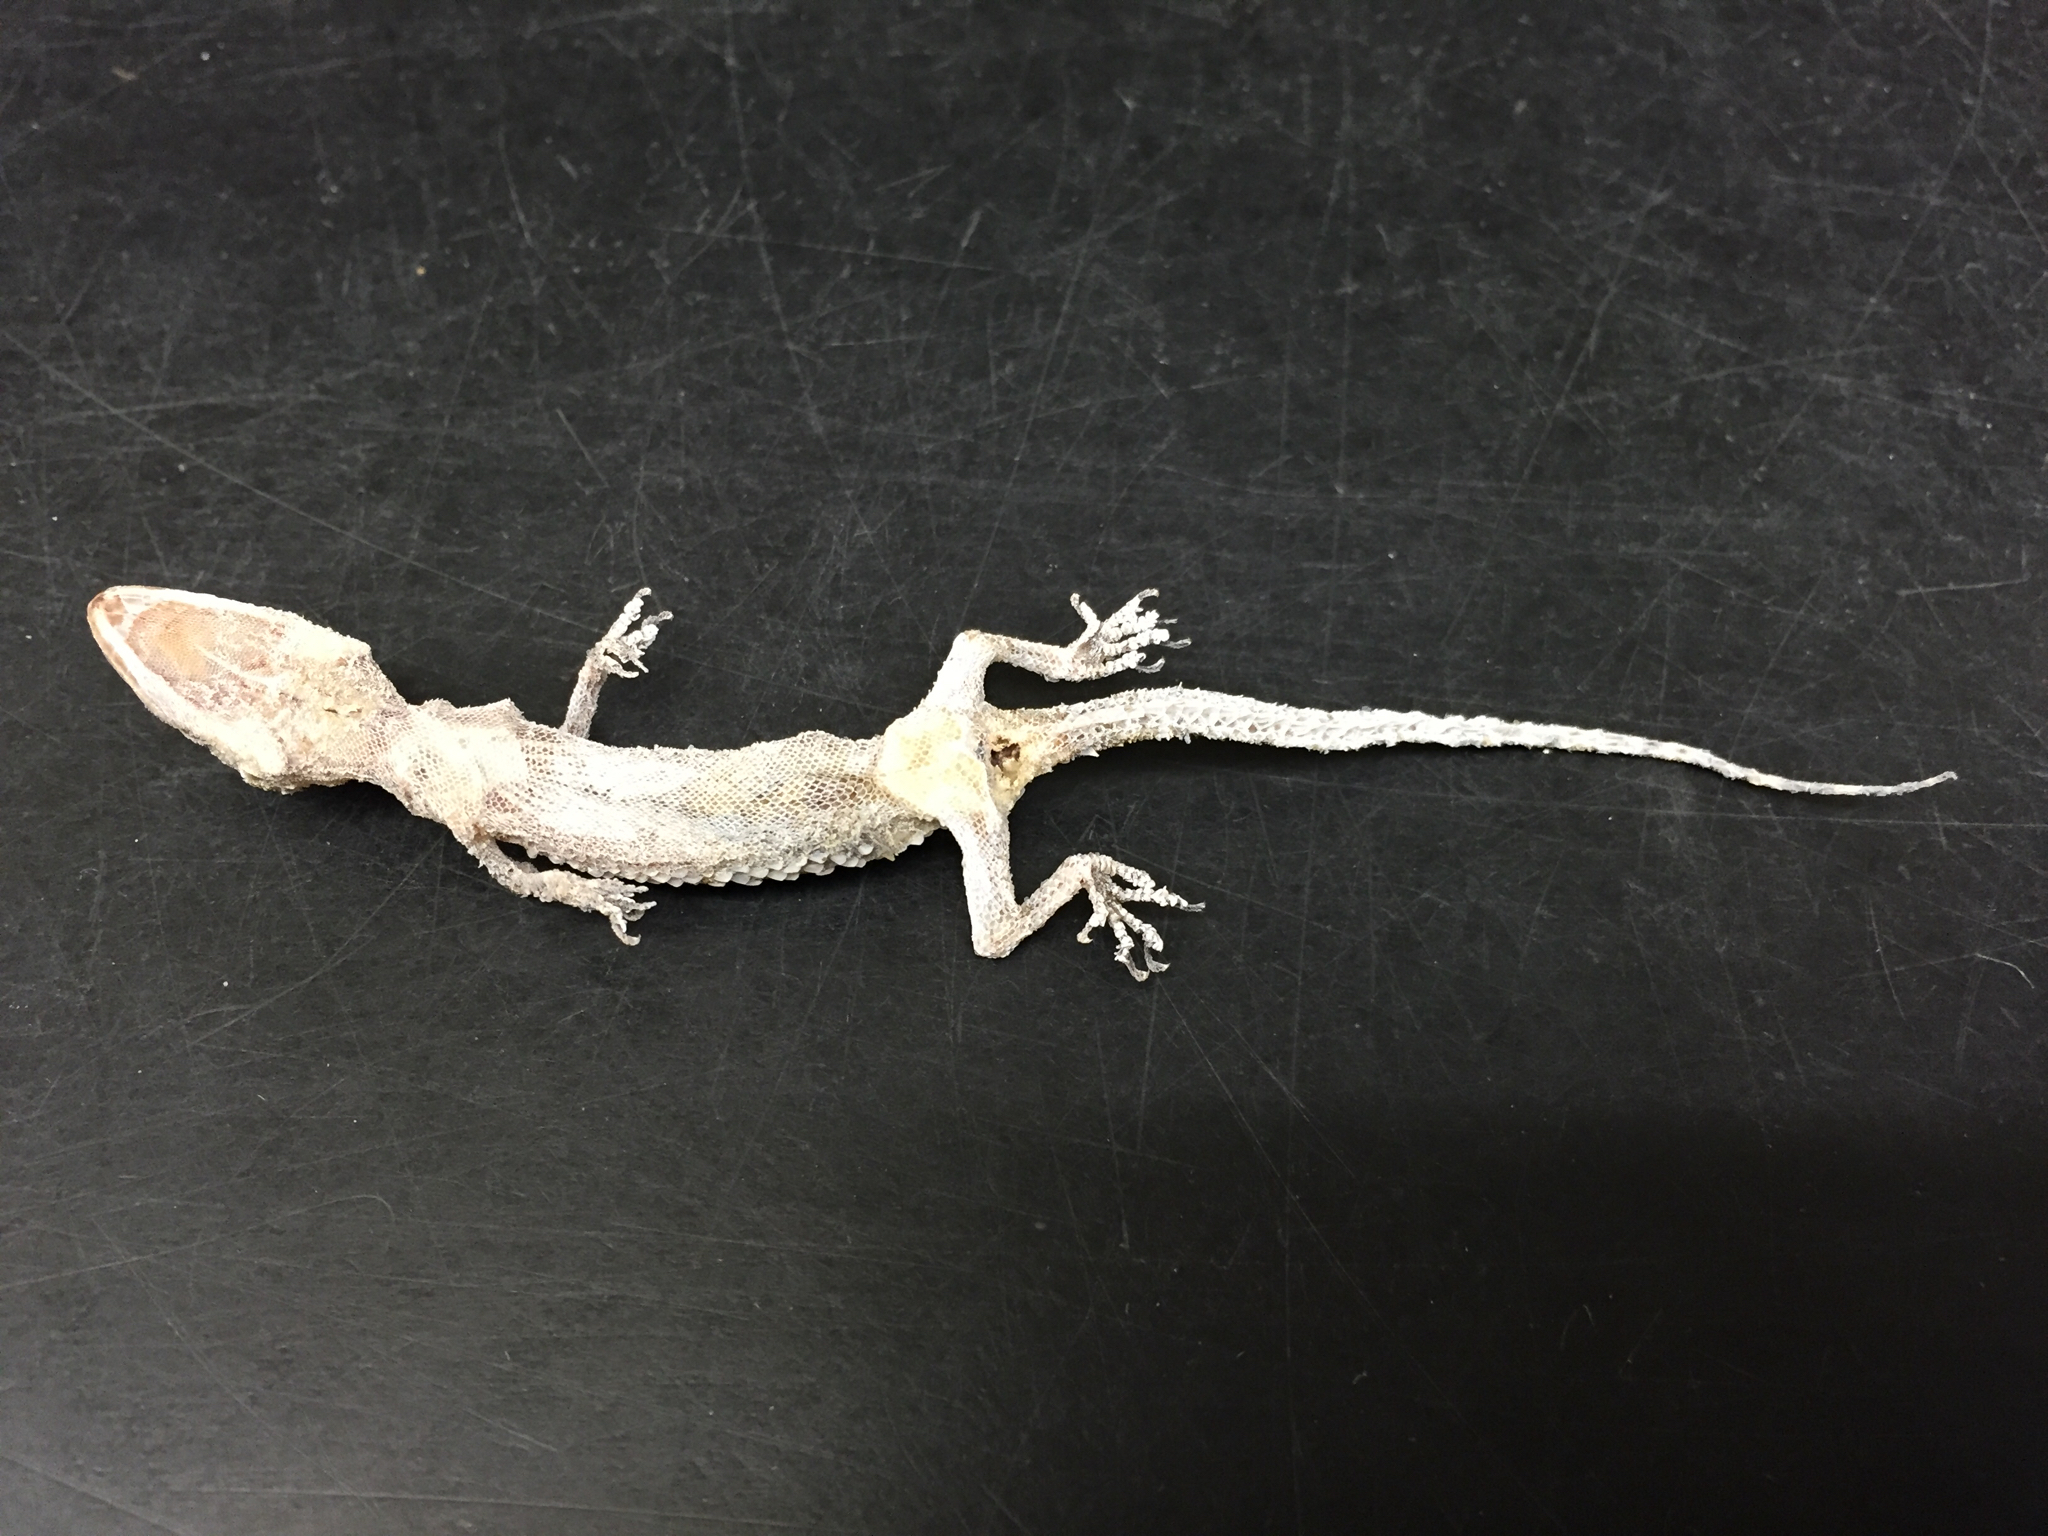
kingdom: Animalia
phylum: Chordata
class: Squamata
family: Gekkonidae
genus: Hemidactylus
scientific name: Hemidactylus turcicus
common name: Turkish gecko
